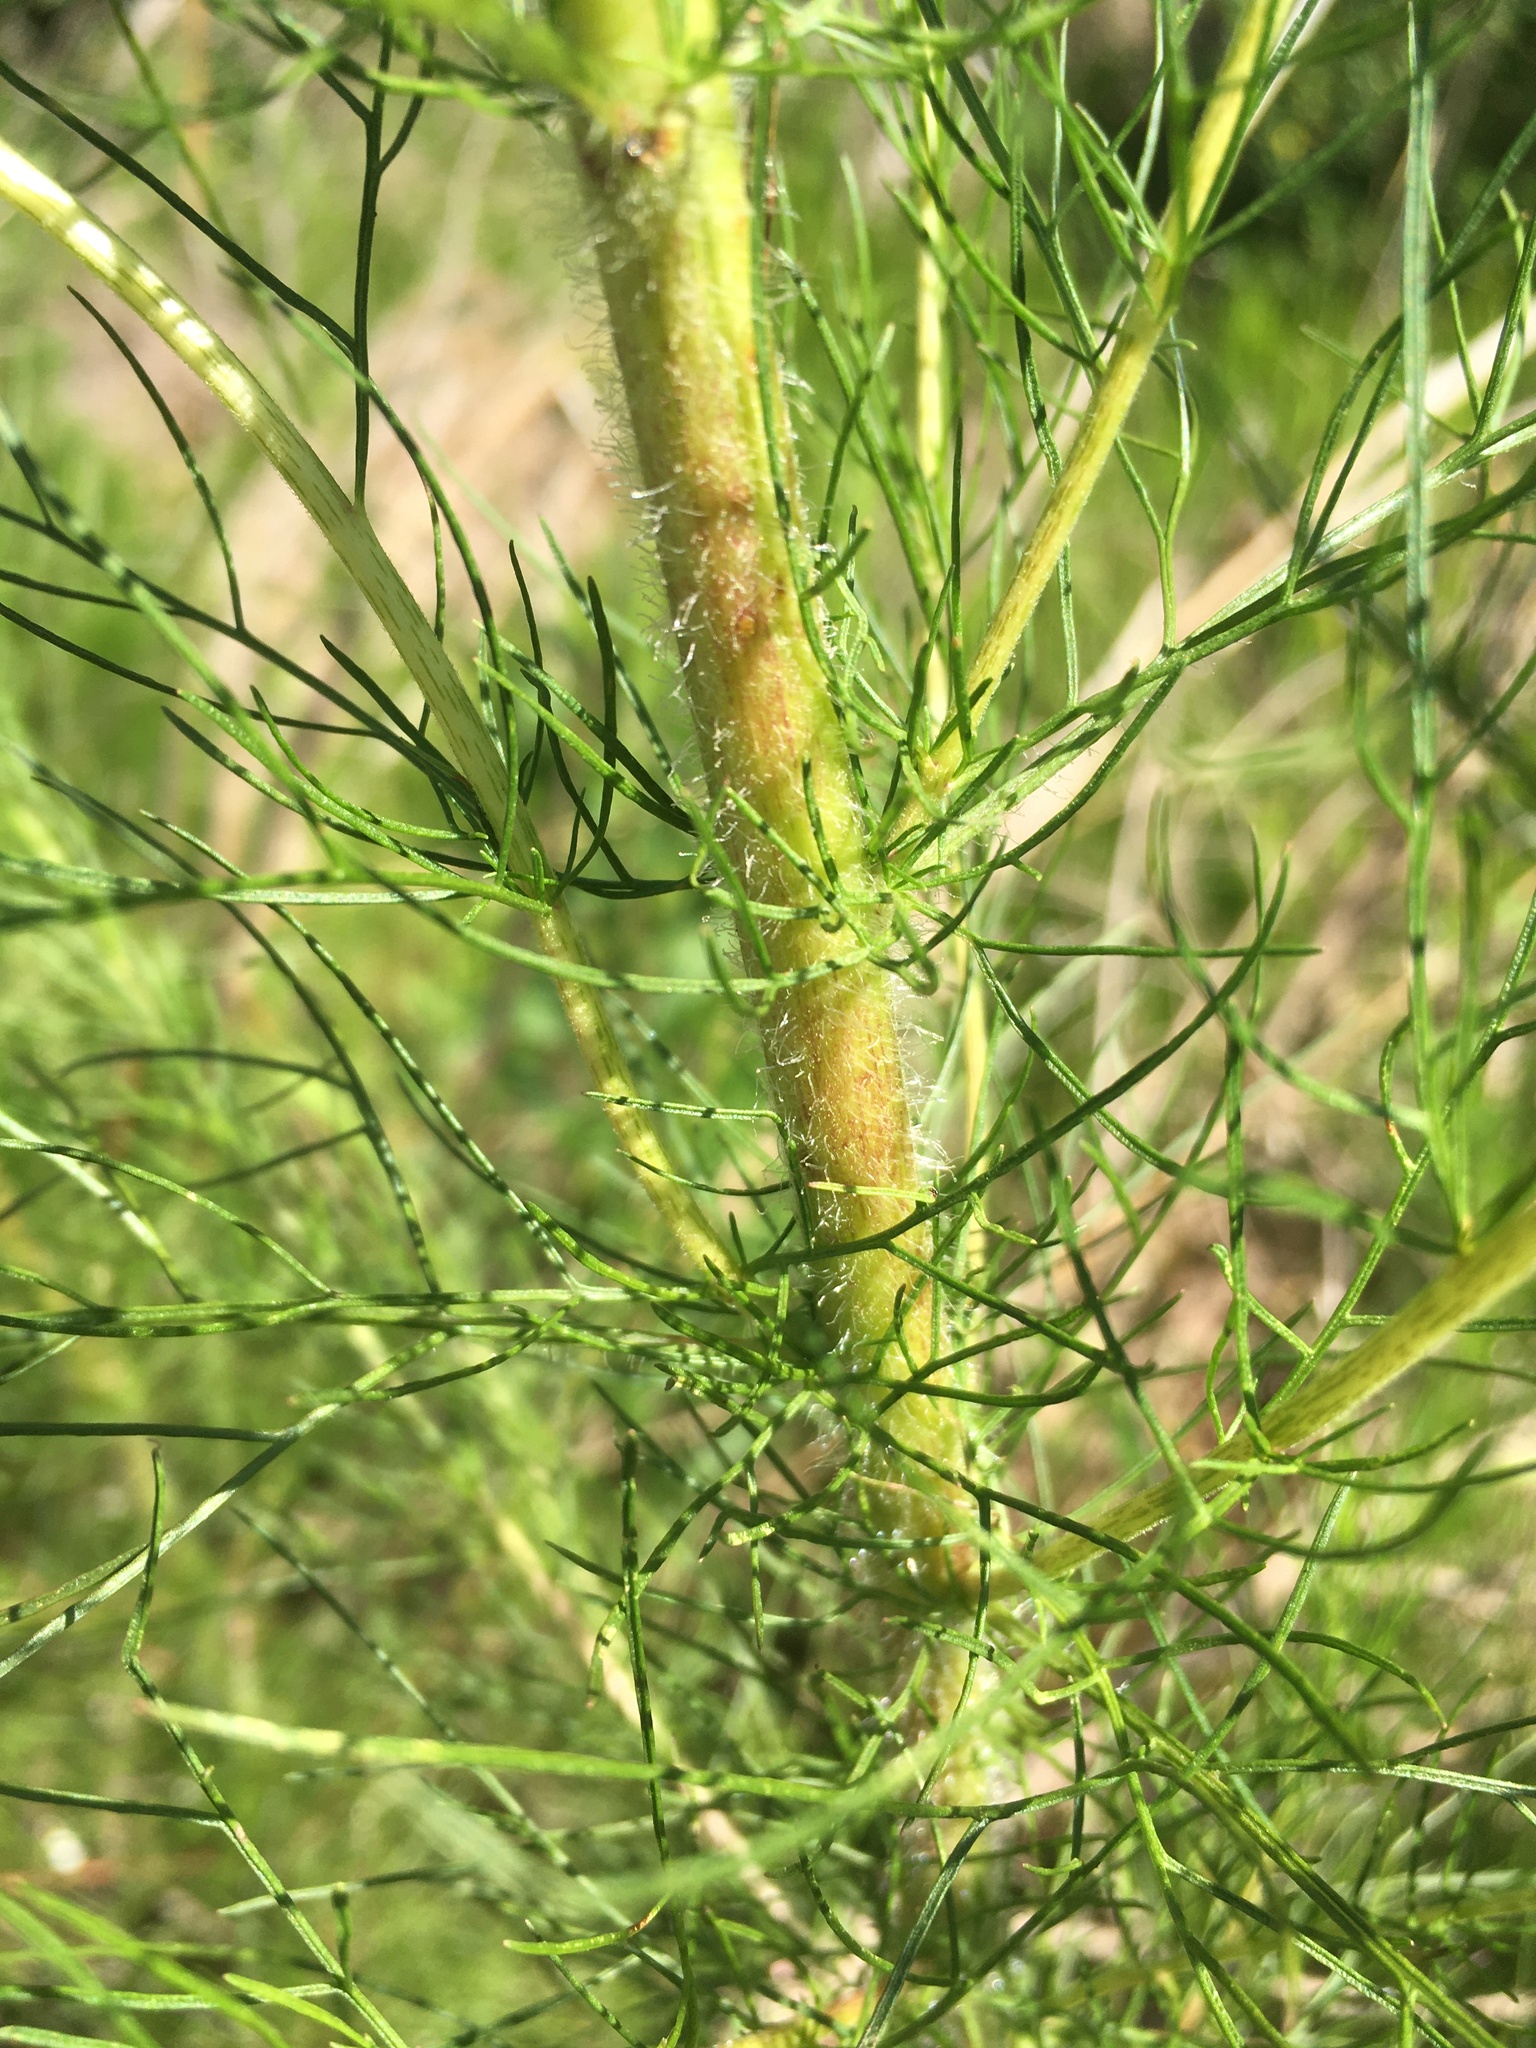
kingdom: Plantae
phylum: Tracheophyta
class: Magnoliopsida
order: Asterales
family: Asteraceae
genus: Eupatorium
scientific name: Eupatorium capillifolium
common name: Dog-fennel
